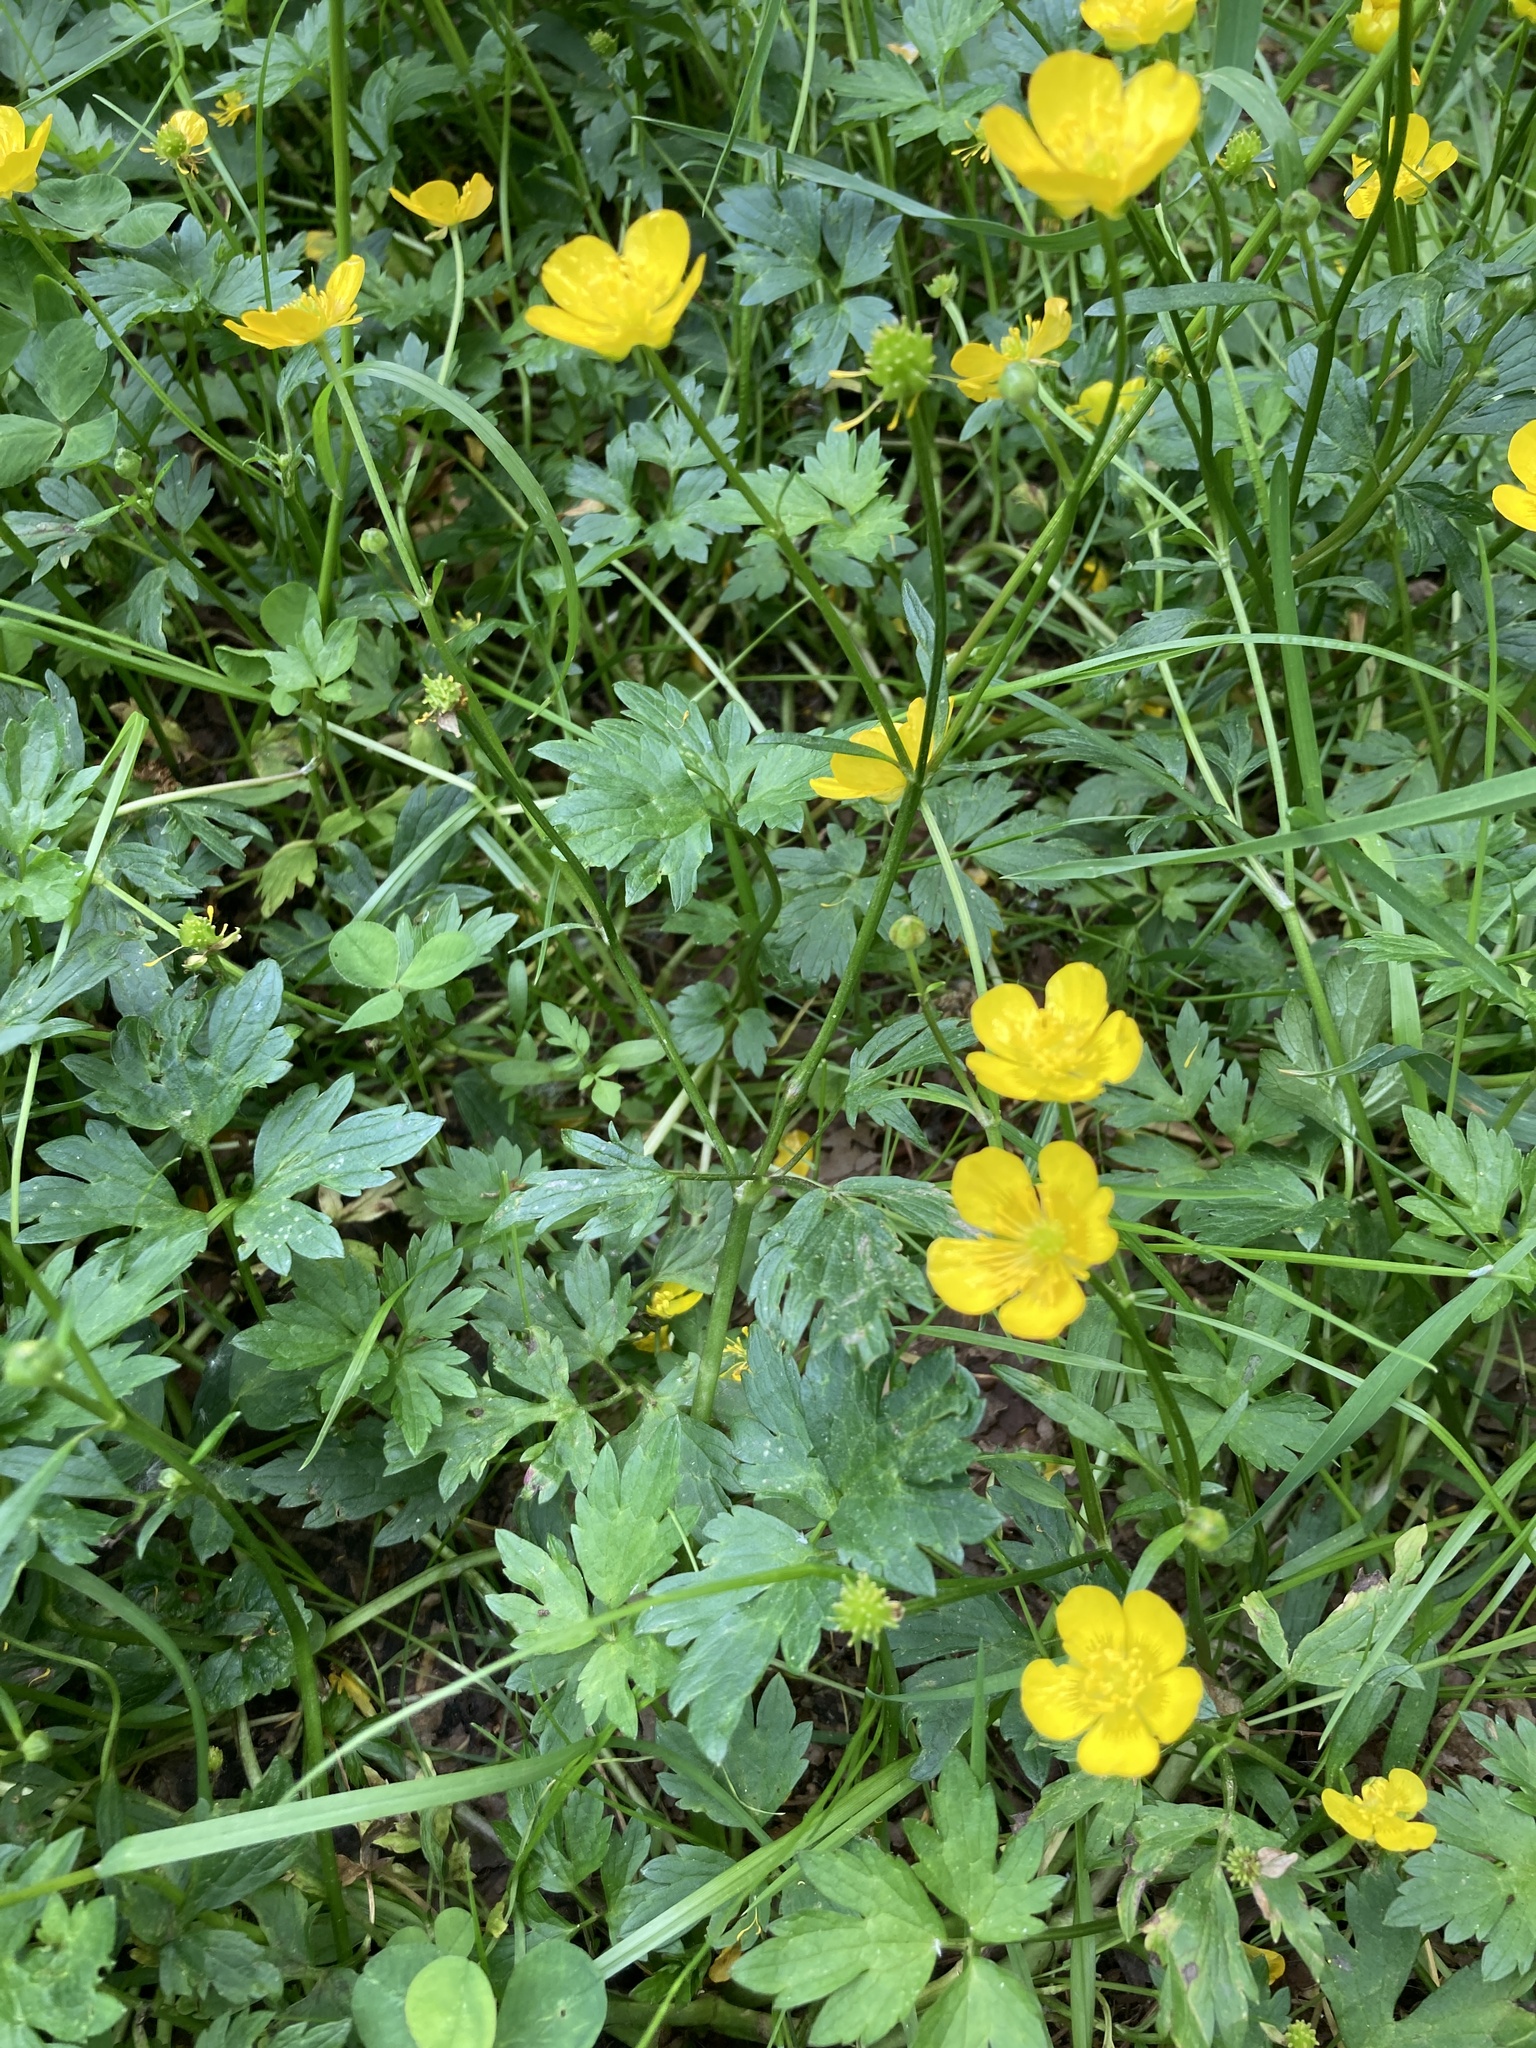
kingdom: Plantae
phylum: Tracheophyta
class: Magnoliopsida
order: Ranunculales
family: Ranunculaceae
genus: Ranunculus
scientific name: Ranunculus repens
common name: Creeping buttercup
